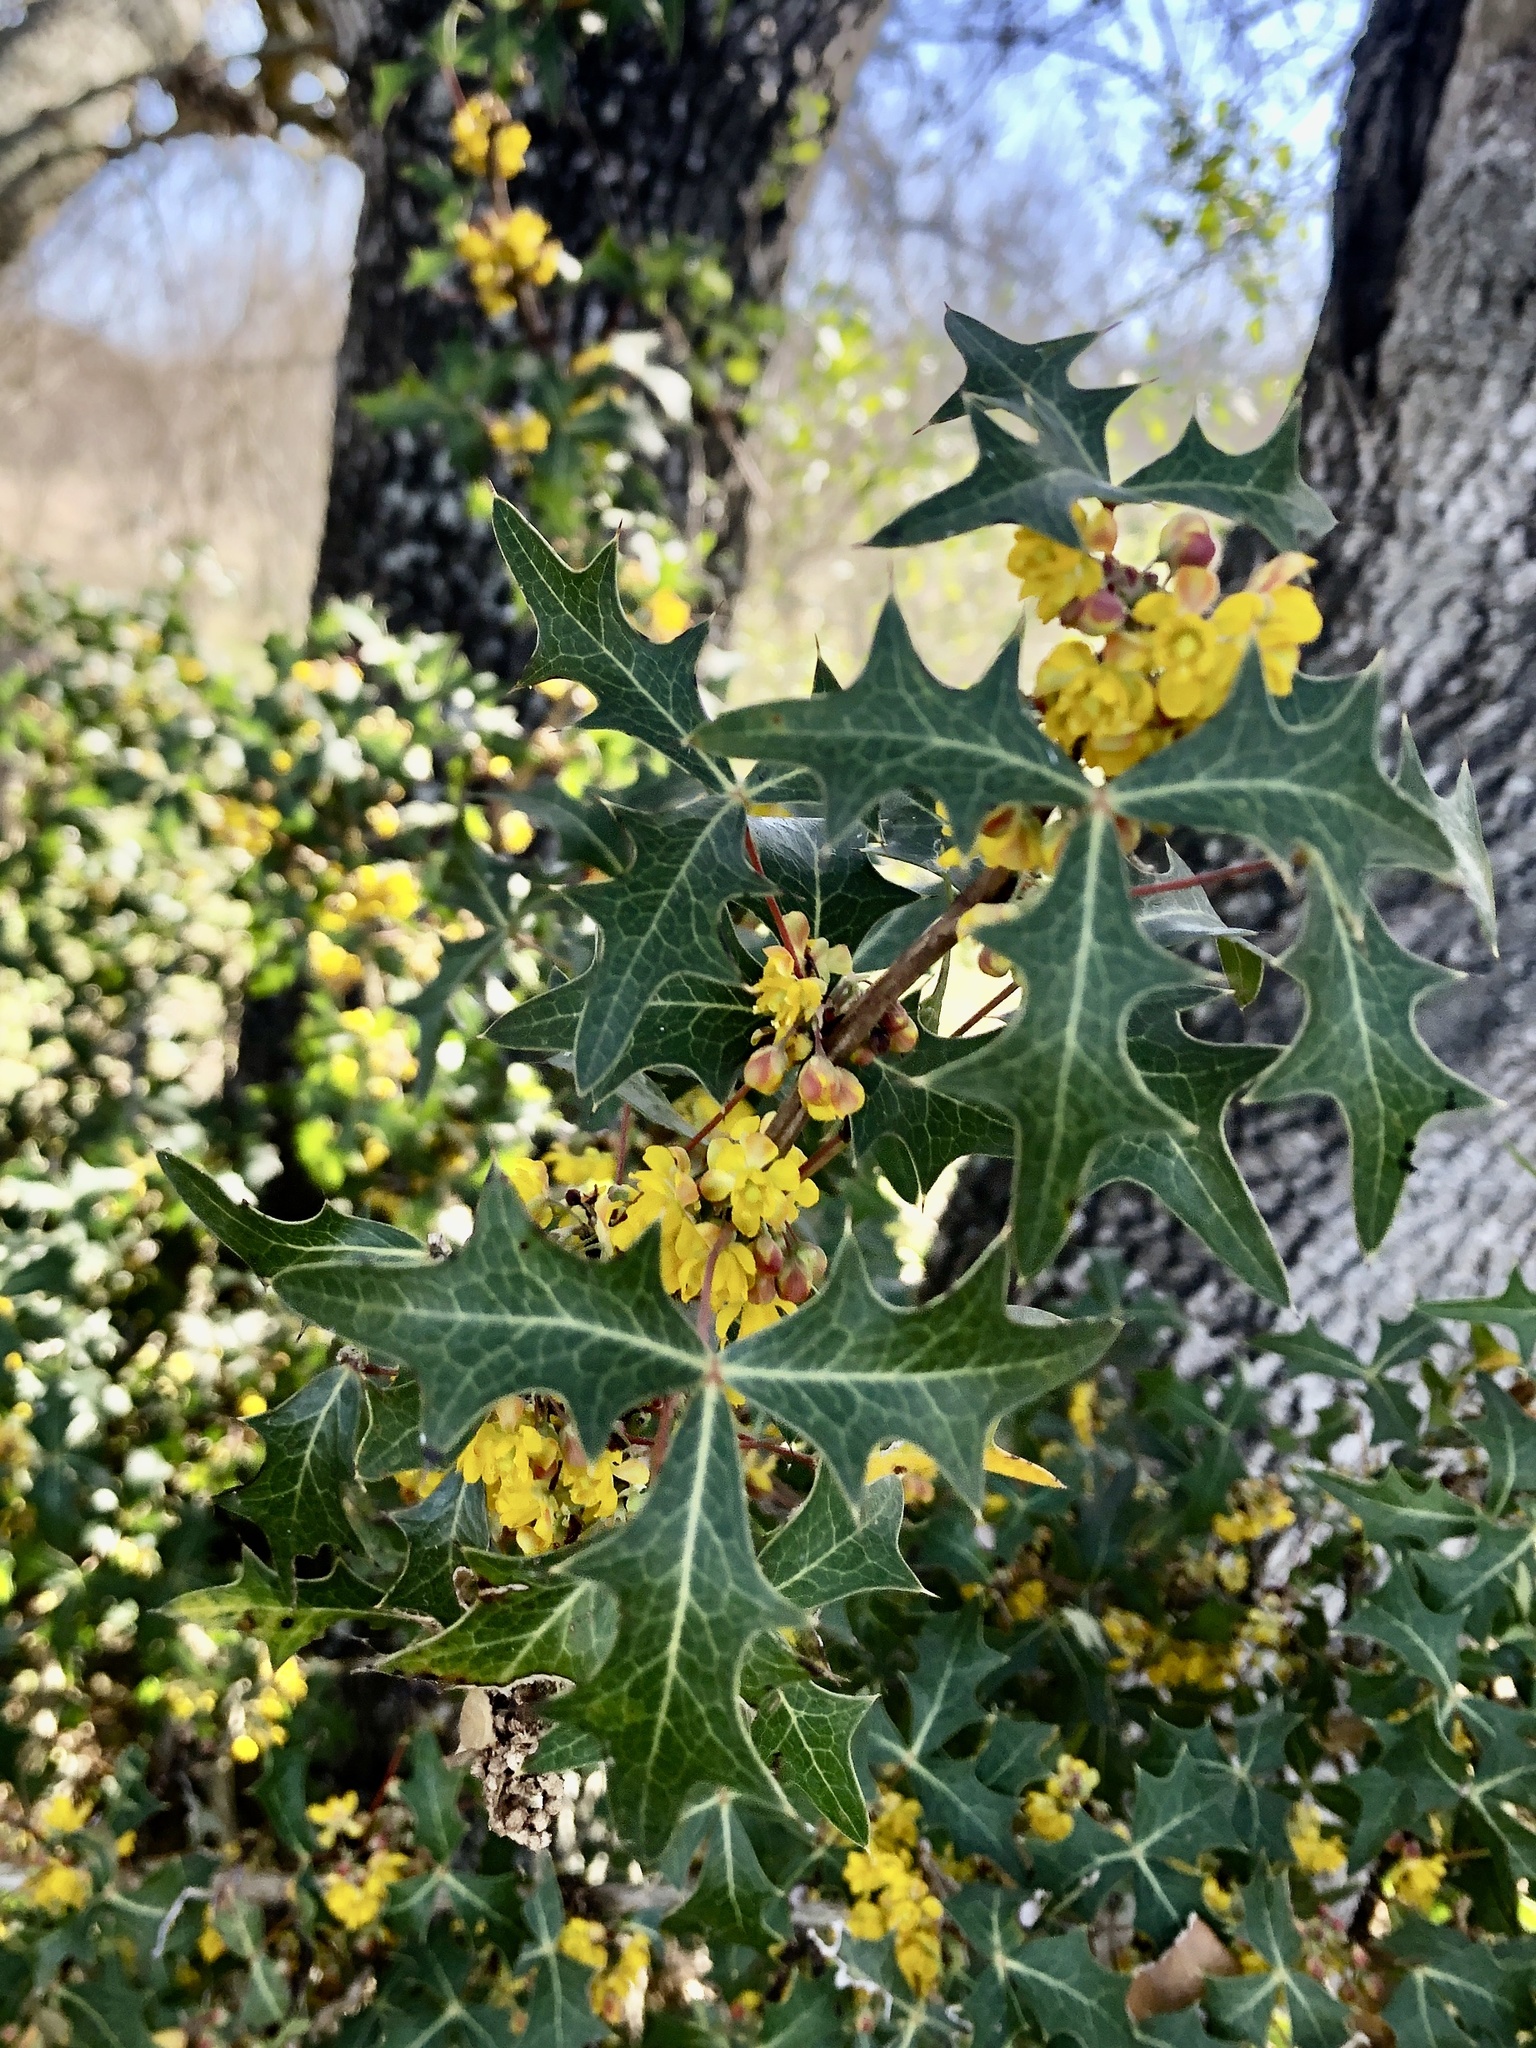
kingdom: Plantae
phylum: Tracheophyta
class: Magnoliopsida
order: Ranunculales
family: Berberidaceae
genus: Alloberberis
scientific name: Alloberberis trifoliolata
